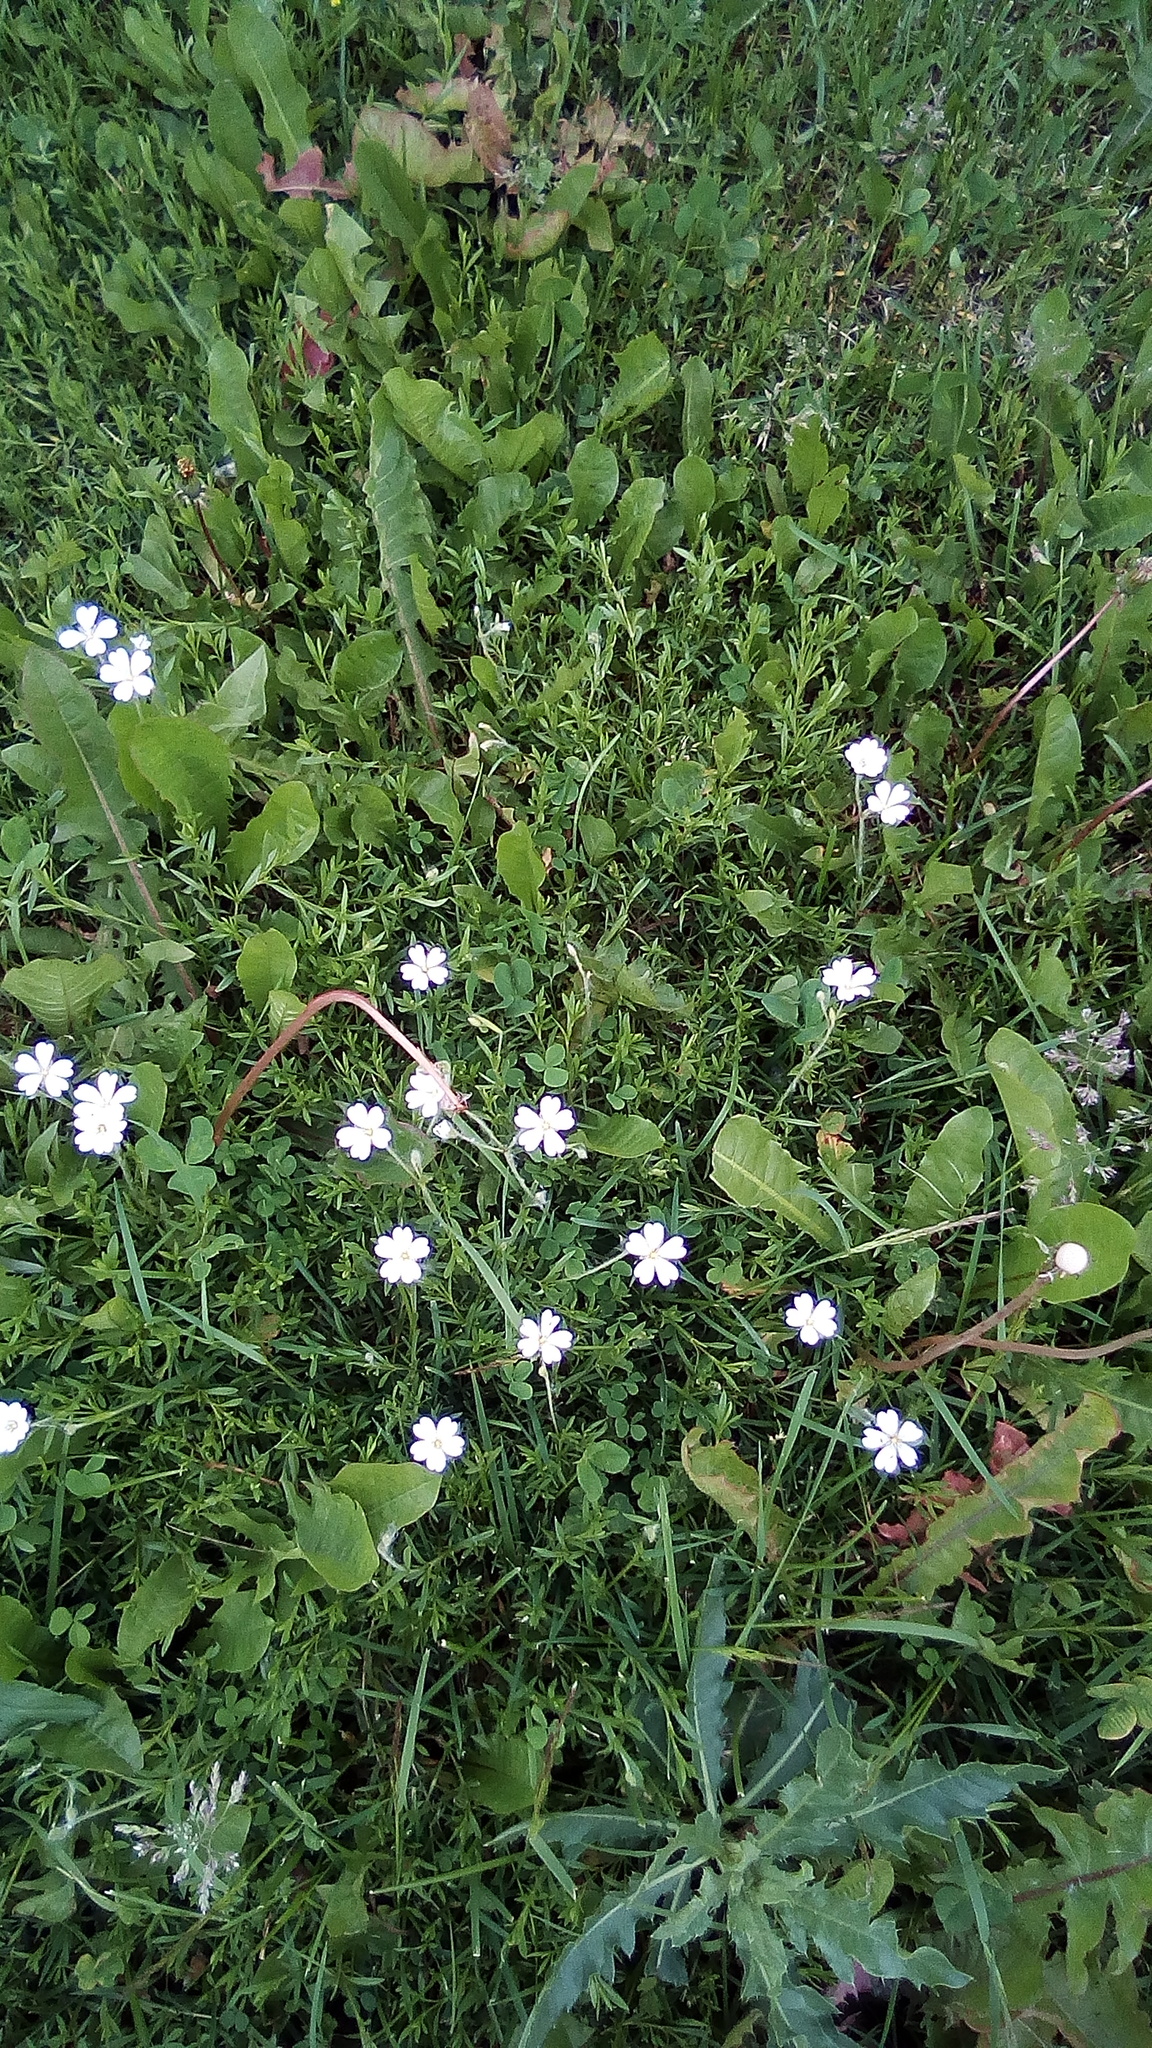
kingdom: Plantae
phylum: Tracheophyta
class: Magnoliopsida
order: Caryophyllales
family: Caryophyllaceae
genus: Cerastium
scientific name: Cerastium arvense
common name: Field mouse-ear
